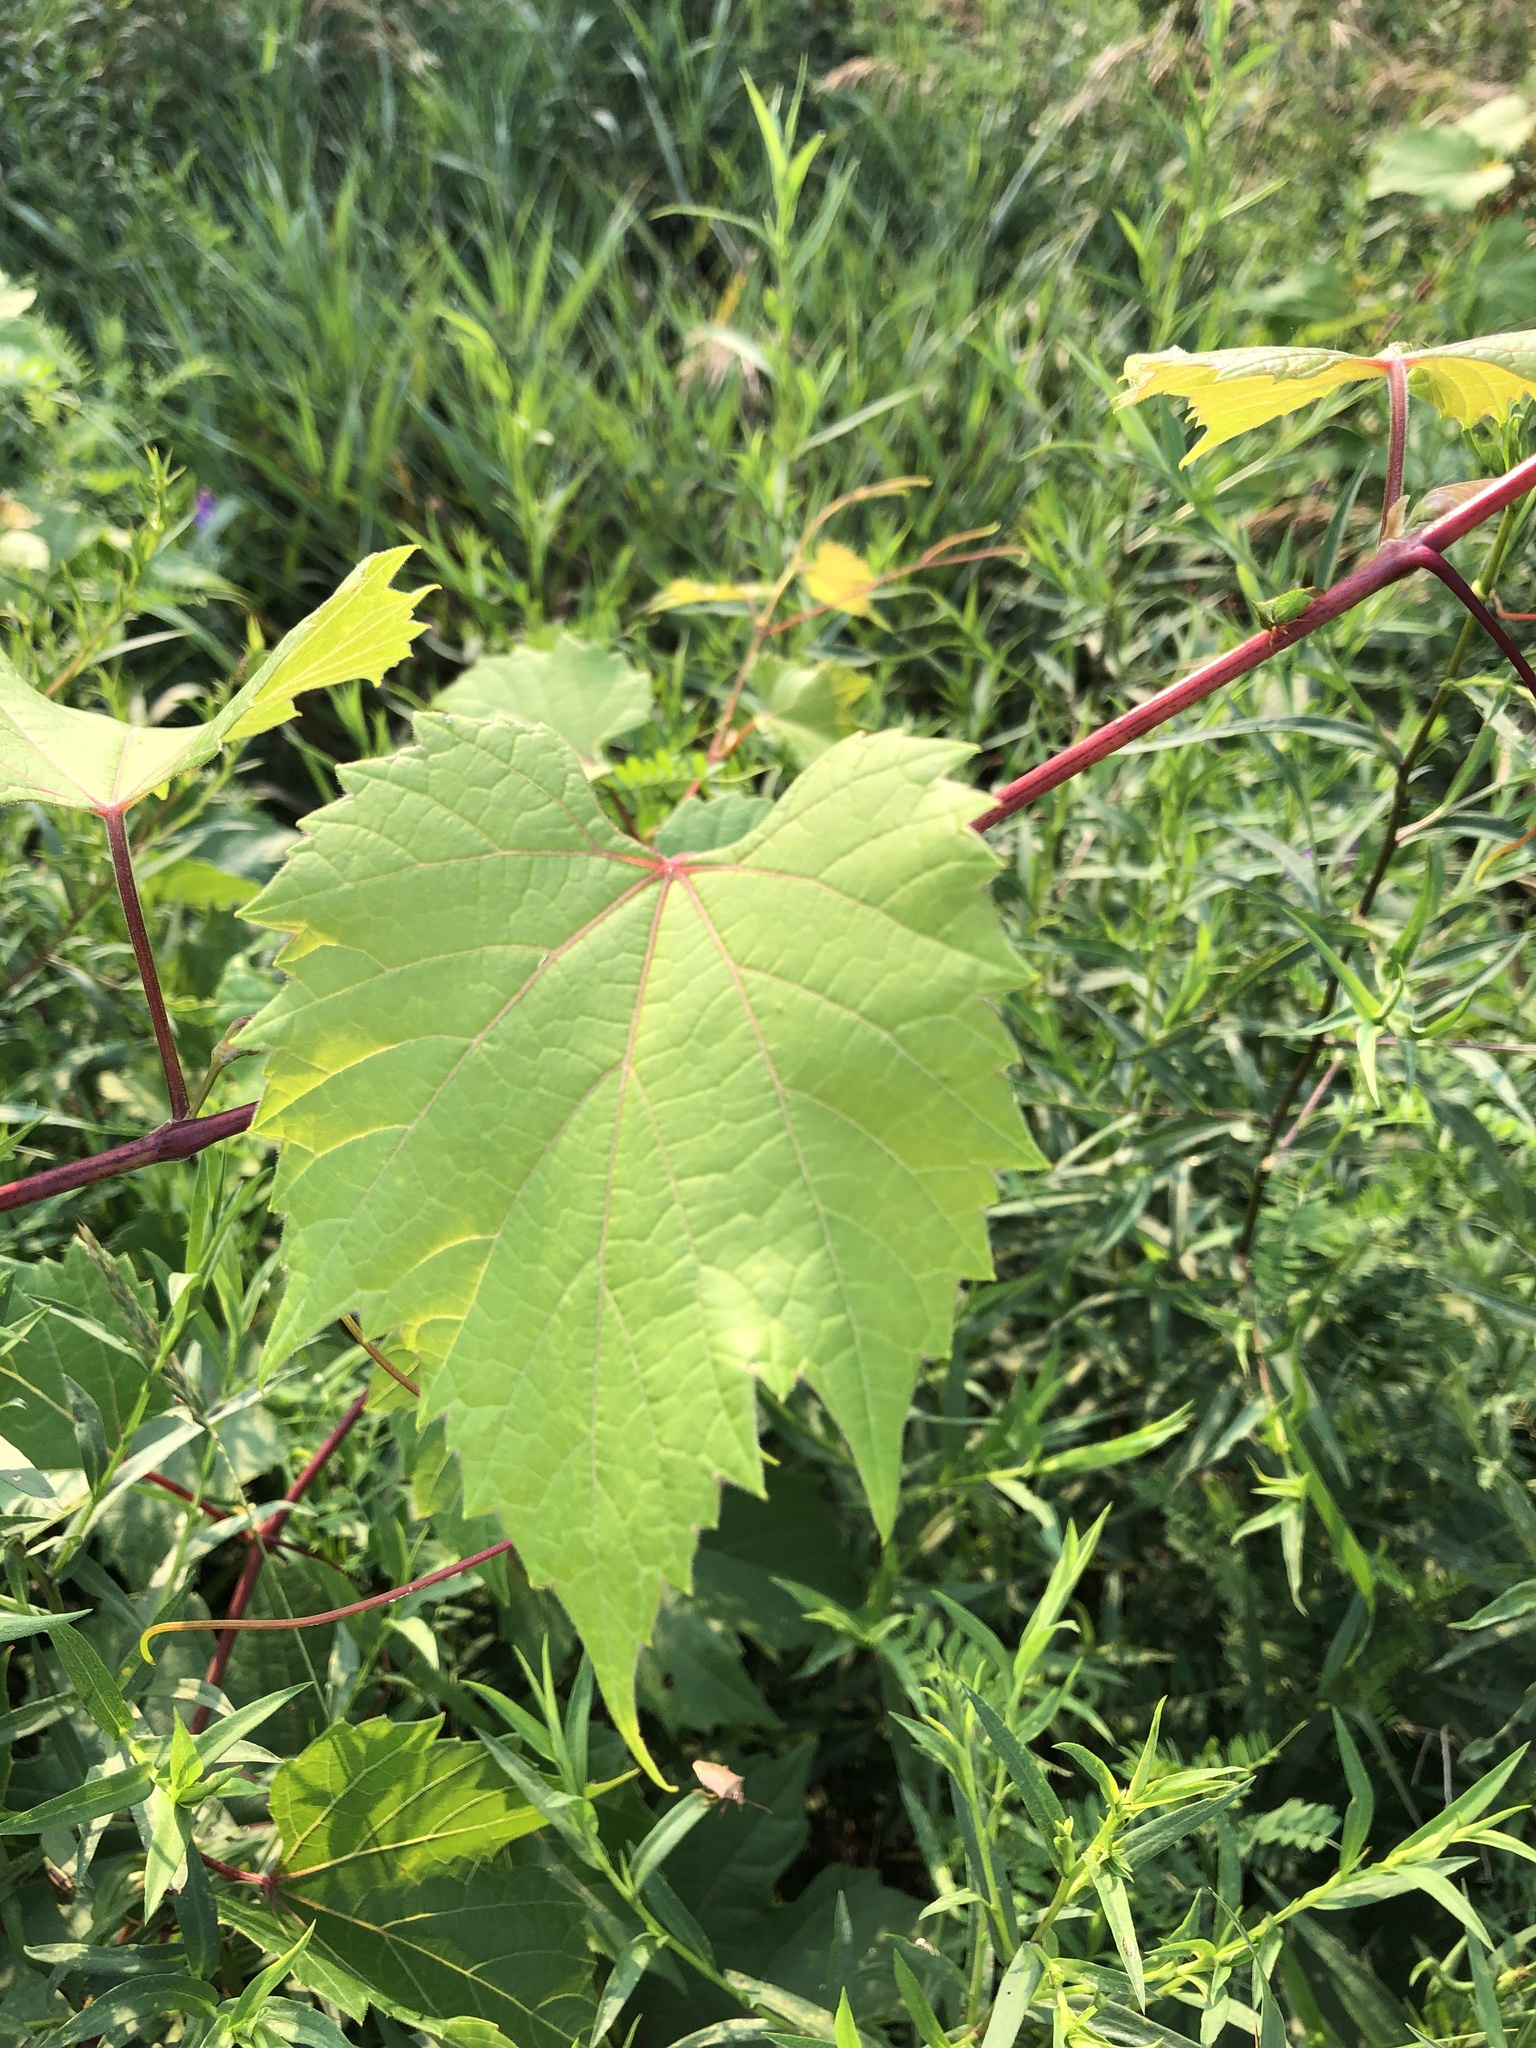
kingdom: Plantae
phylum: Tracheophyta
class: Magnoliopsida
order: Vitales
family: Vitaceae
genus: Vitis
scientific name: Vitis riparia
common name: Frost grape
